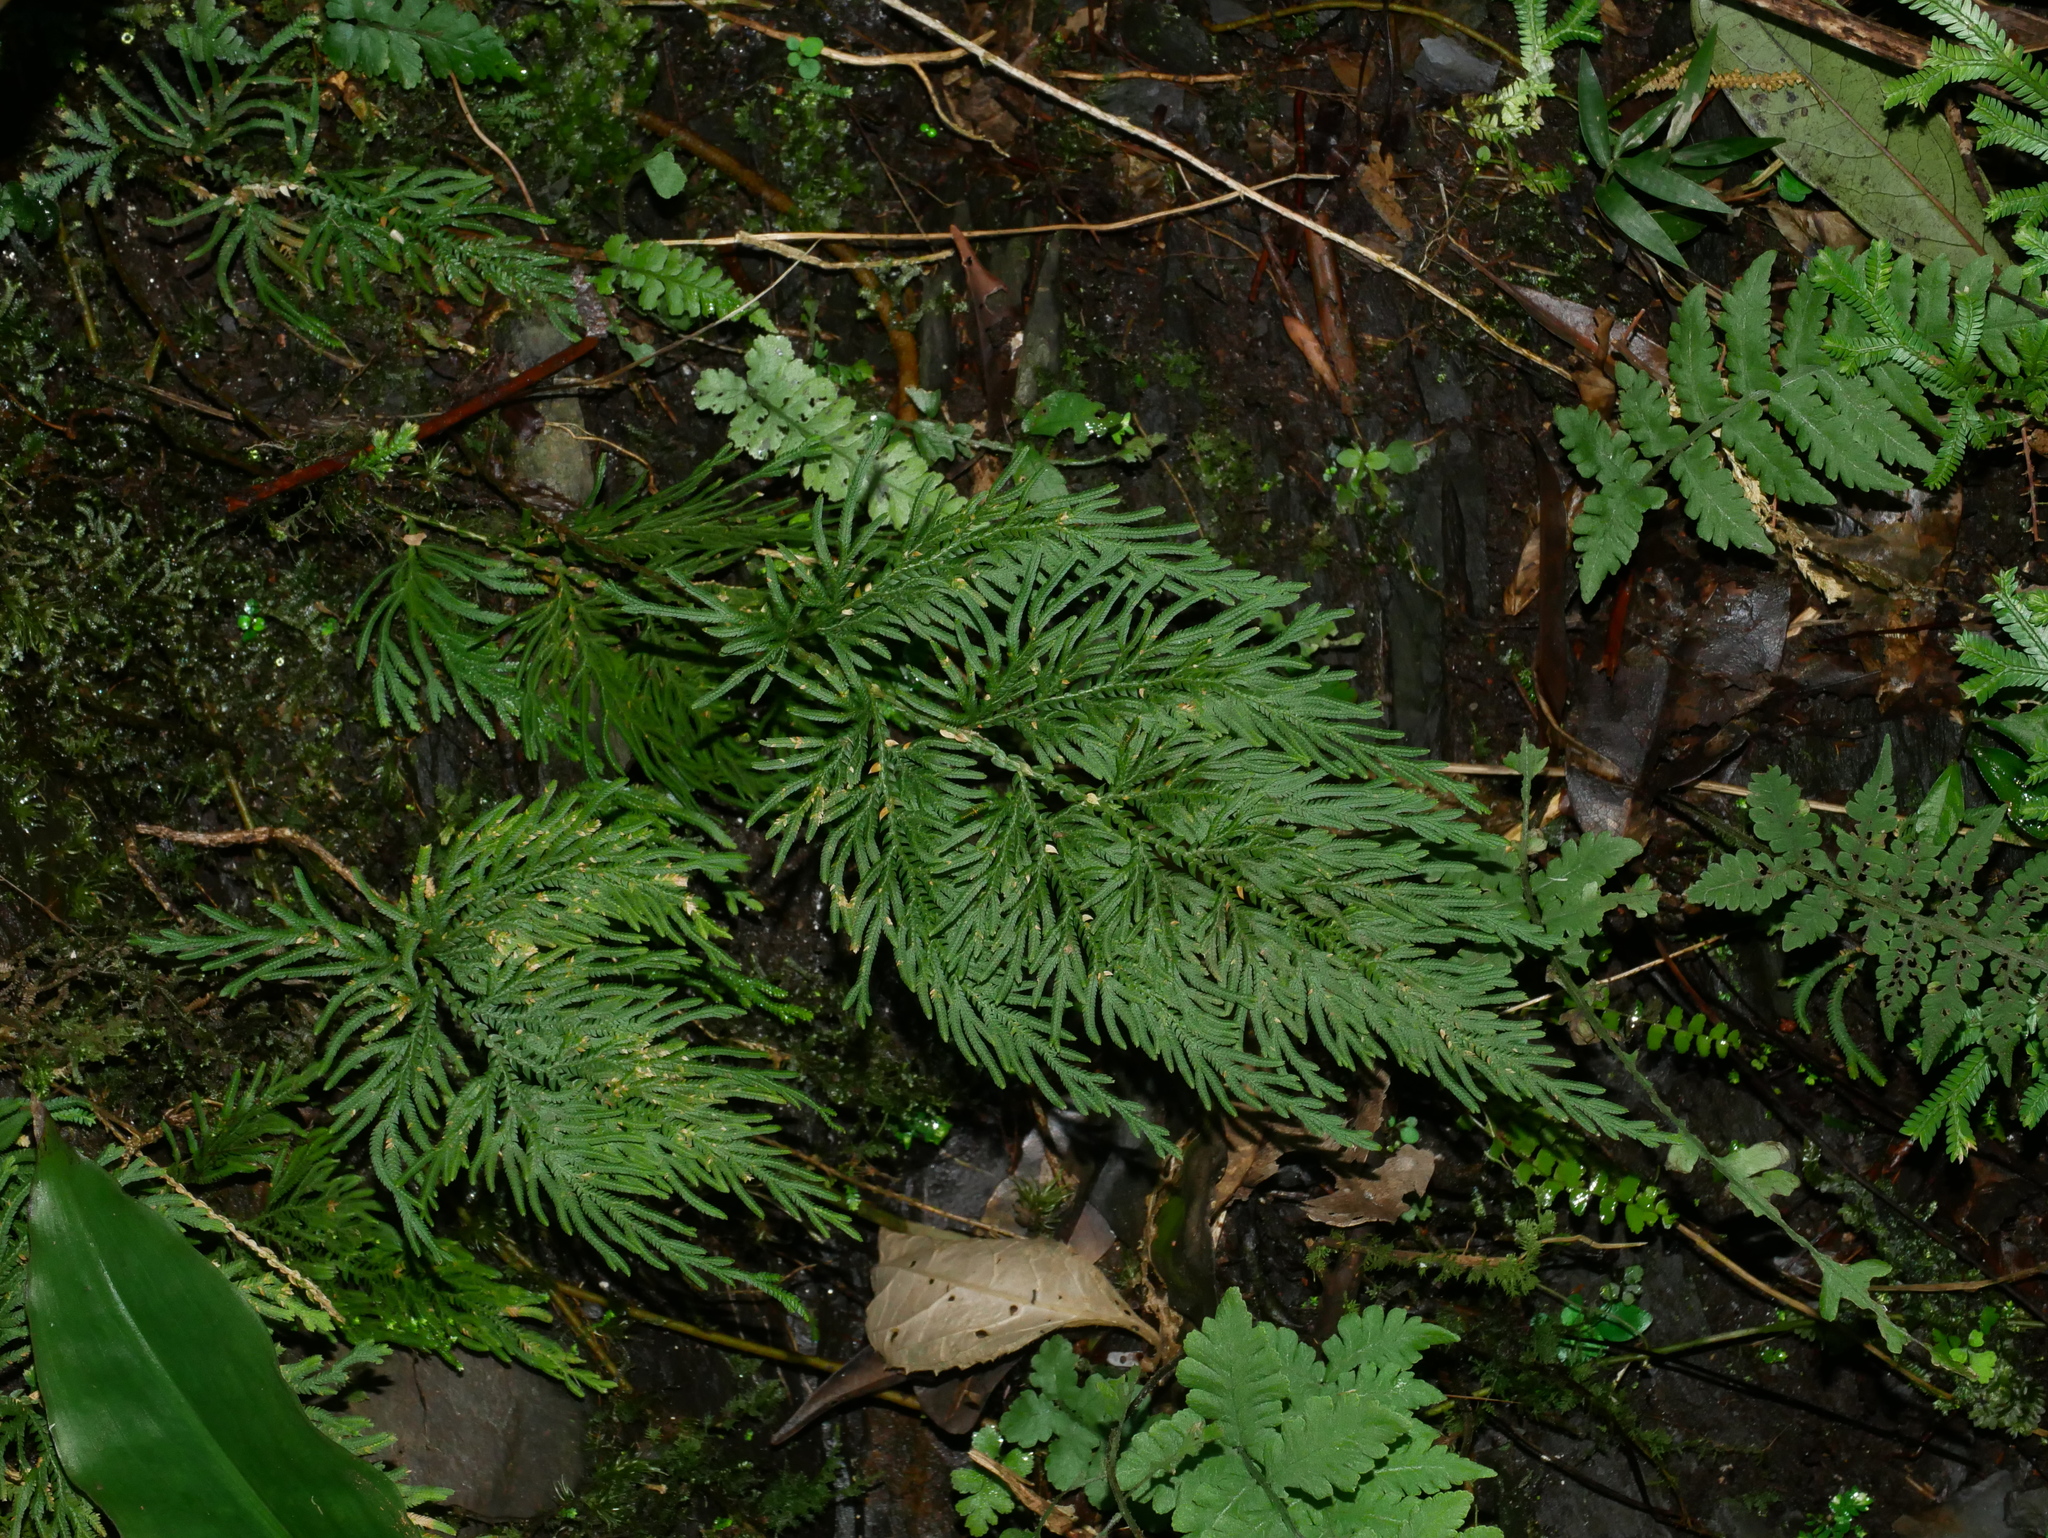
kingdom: Plantae
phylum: Tracheophyta
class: Lycopodiopsida
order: Selaginellales
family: Selaginellaceae
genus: Selaginella
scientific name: Selaginella moellendorffii
